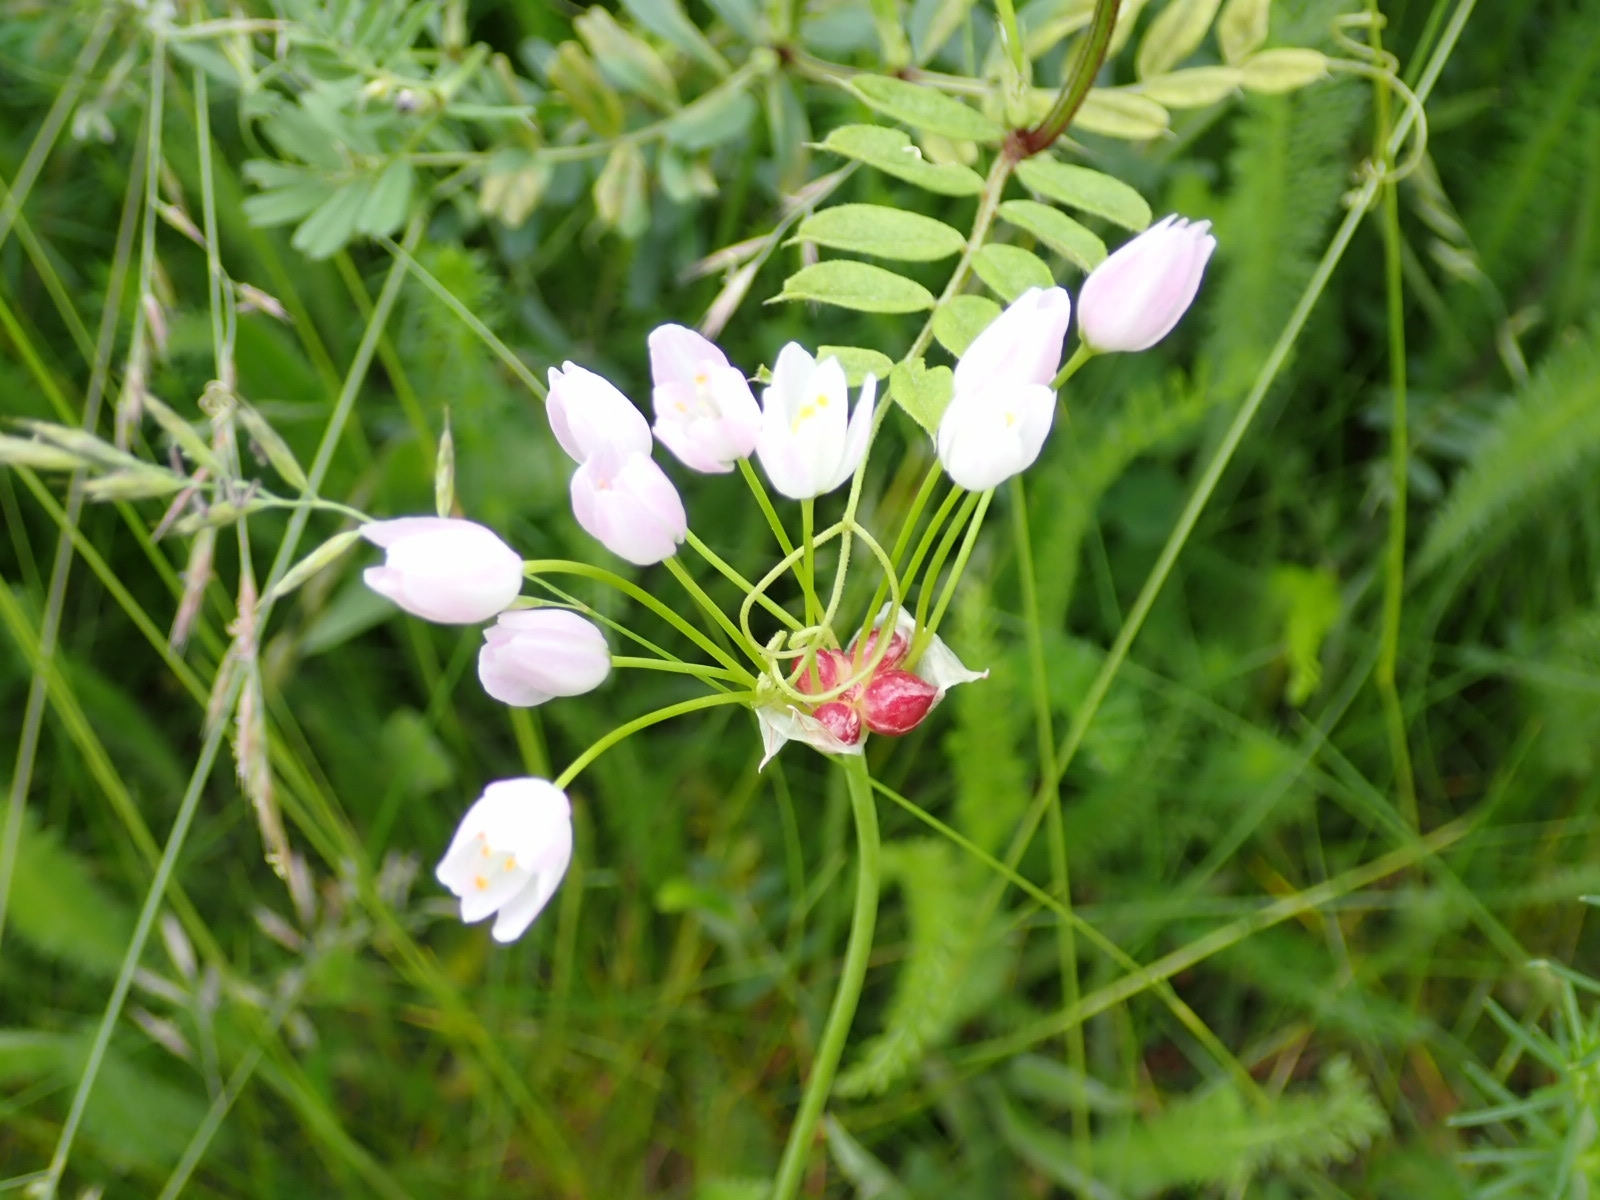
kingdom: Plantae
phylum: Tracheophyta
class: Liliopsida
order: Asparagales
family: Amaryllidaceae
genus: Allium
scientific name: Allium roseum
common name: Rosy garlic
